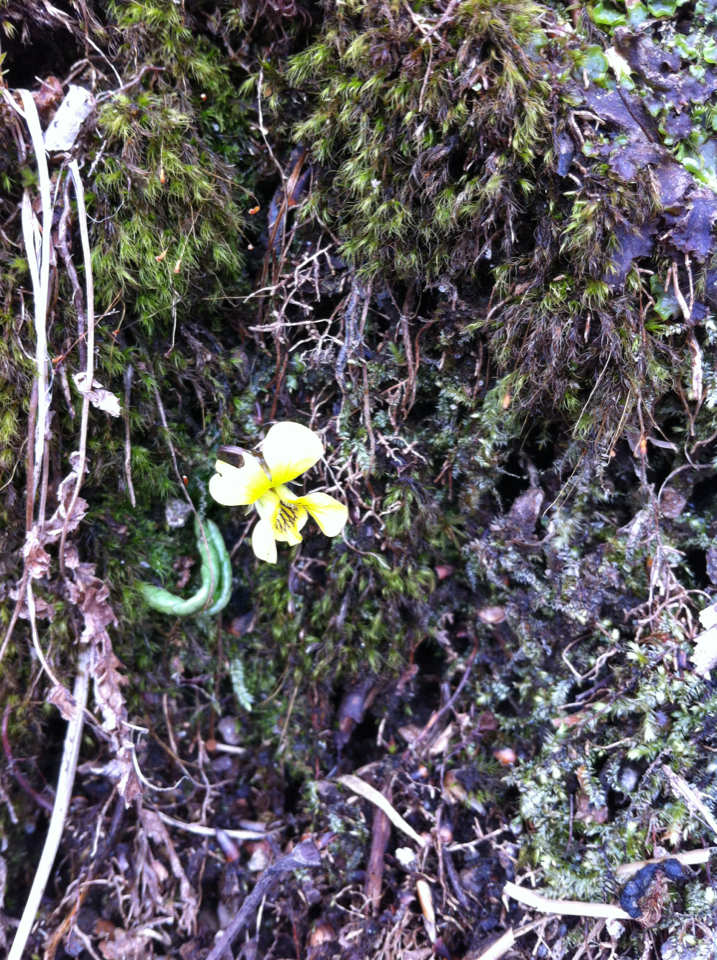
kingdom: Plantae
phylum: Tracheophyta
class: Magnoliopsida
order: Malpighiales
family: Violaceae
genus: Viola
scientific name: Viola rotundifolia
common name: Early yellow violet
